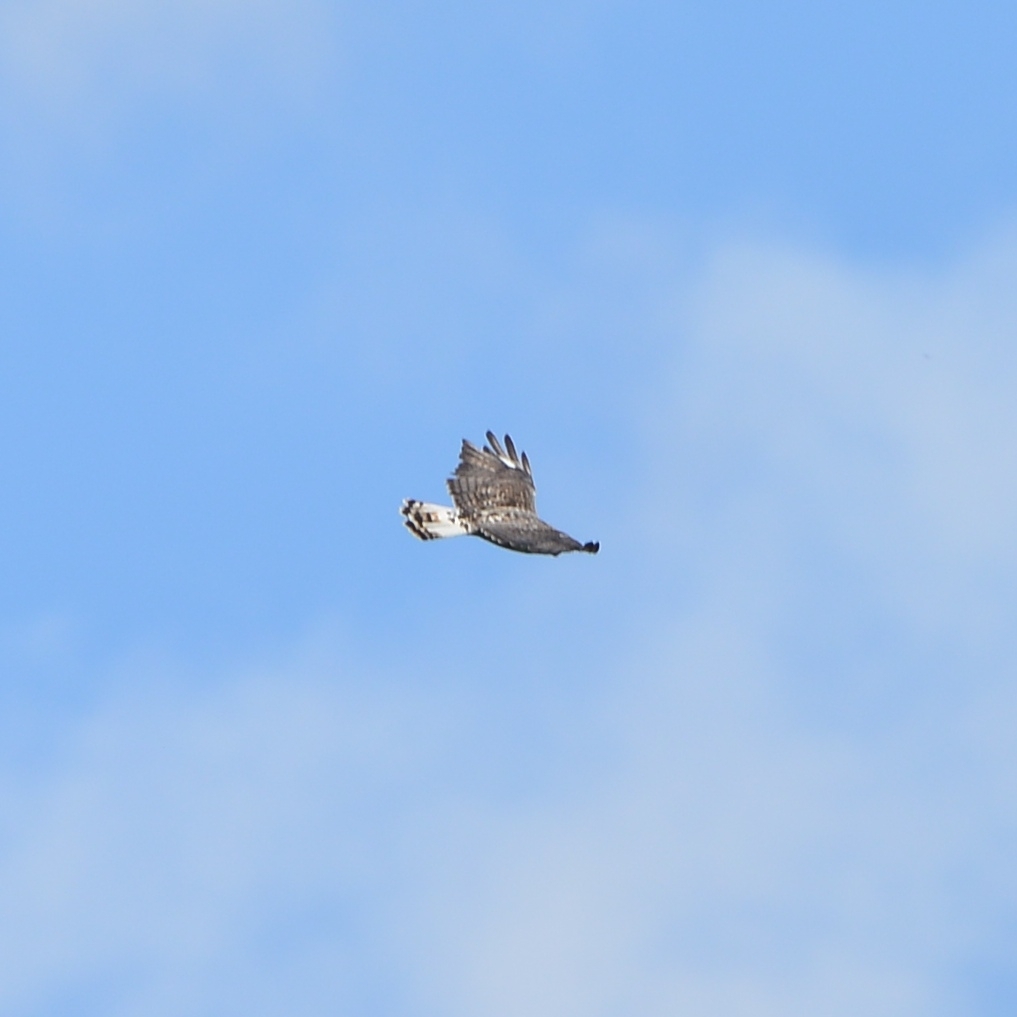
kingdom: Animalia
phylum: Chordata
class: Aves
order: Accipitriformes
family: Accipitridae
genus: Buteo
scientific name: Buteo lagopus
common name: Rough-legged buzzard
